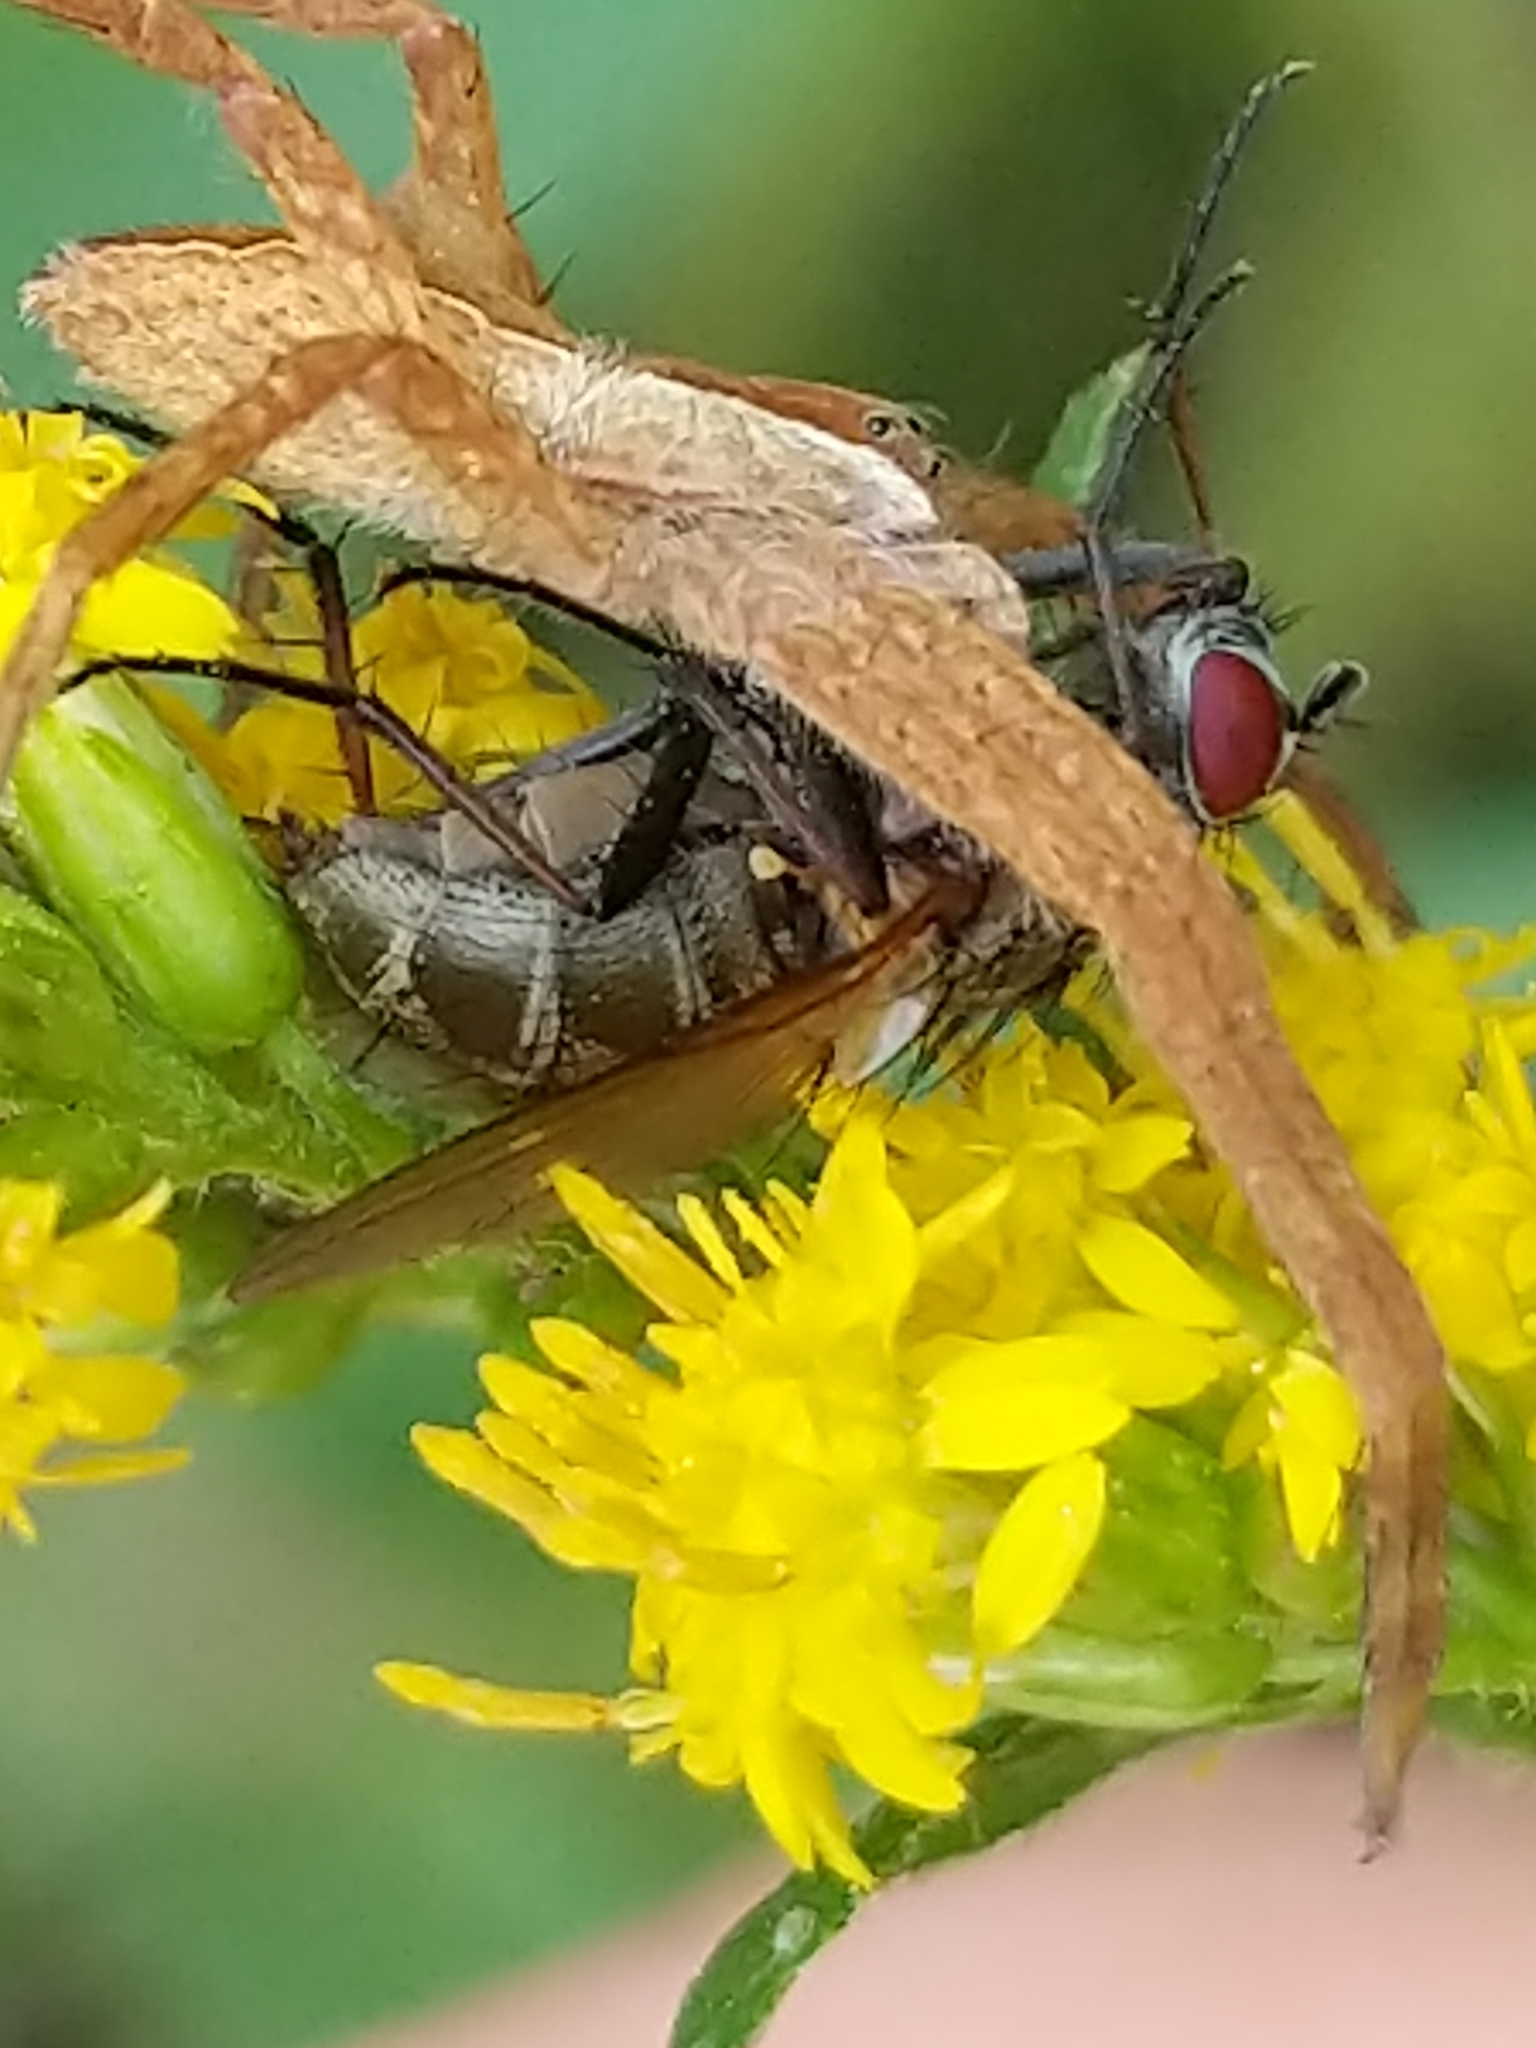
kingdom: Animalia
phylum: Arthropoda
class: Arachnida
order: Araneae
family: Pisauridae
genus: Pisaurina
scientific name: Pisaurina mira
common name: American nursery web spider
